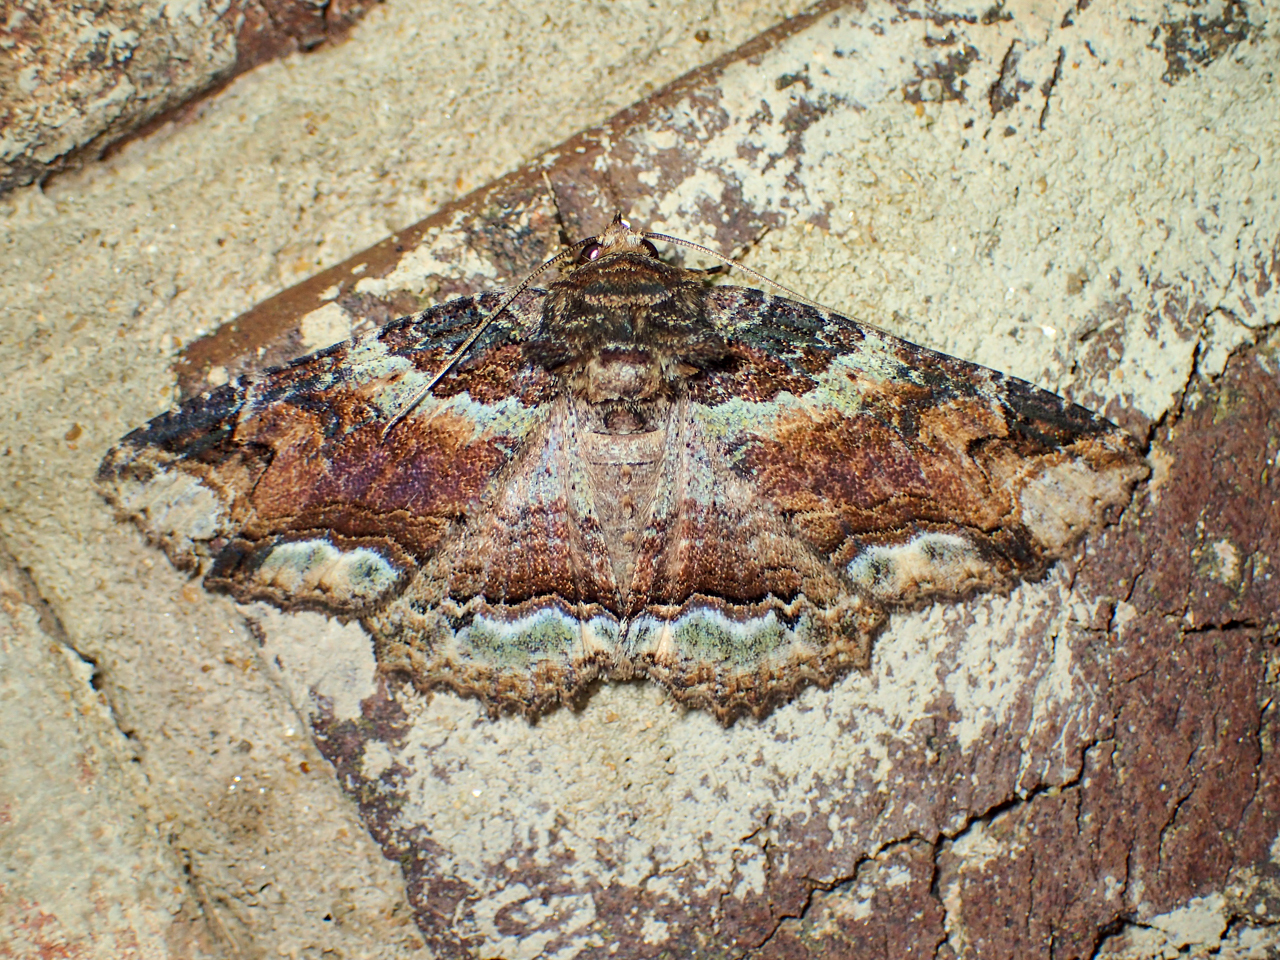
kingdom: Animalia
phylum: Arthropoda
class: Insecta
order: Lepidoptera
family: Erebidae
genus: Zale
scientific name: Zale minerea
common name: Colorful zale moth
